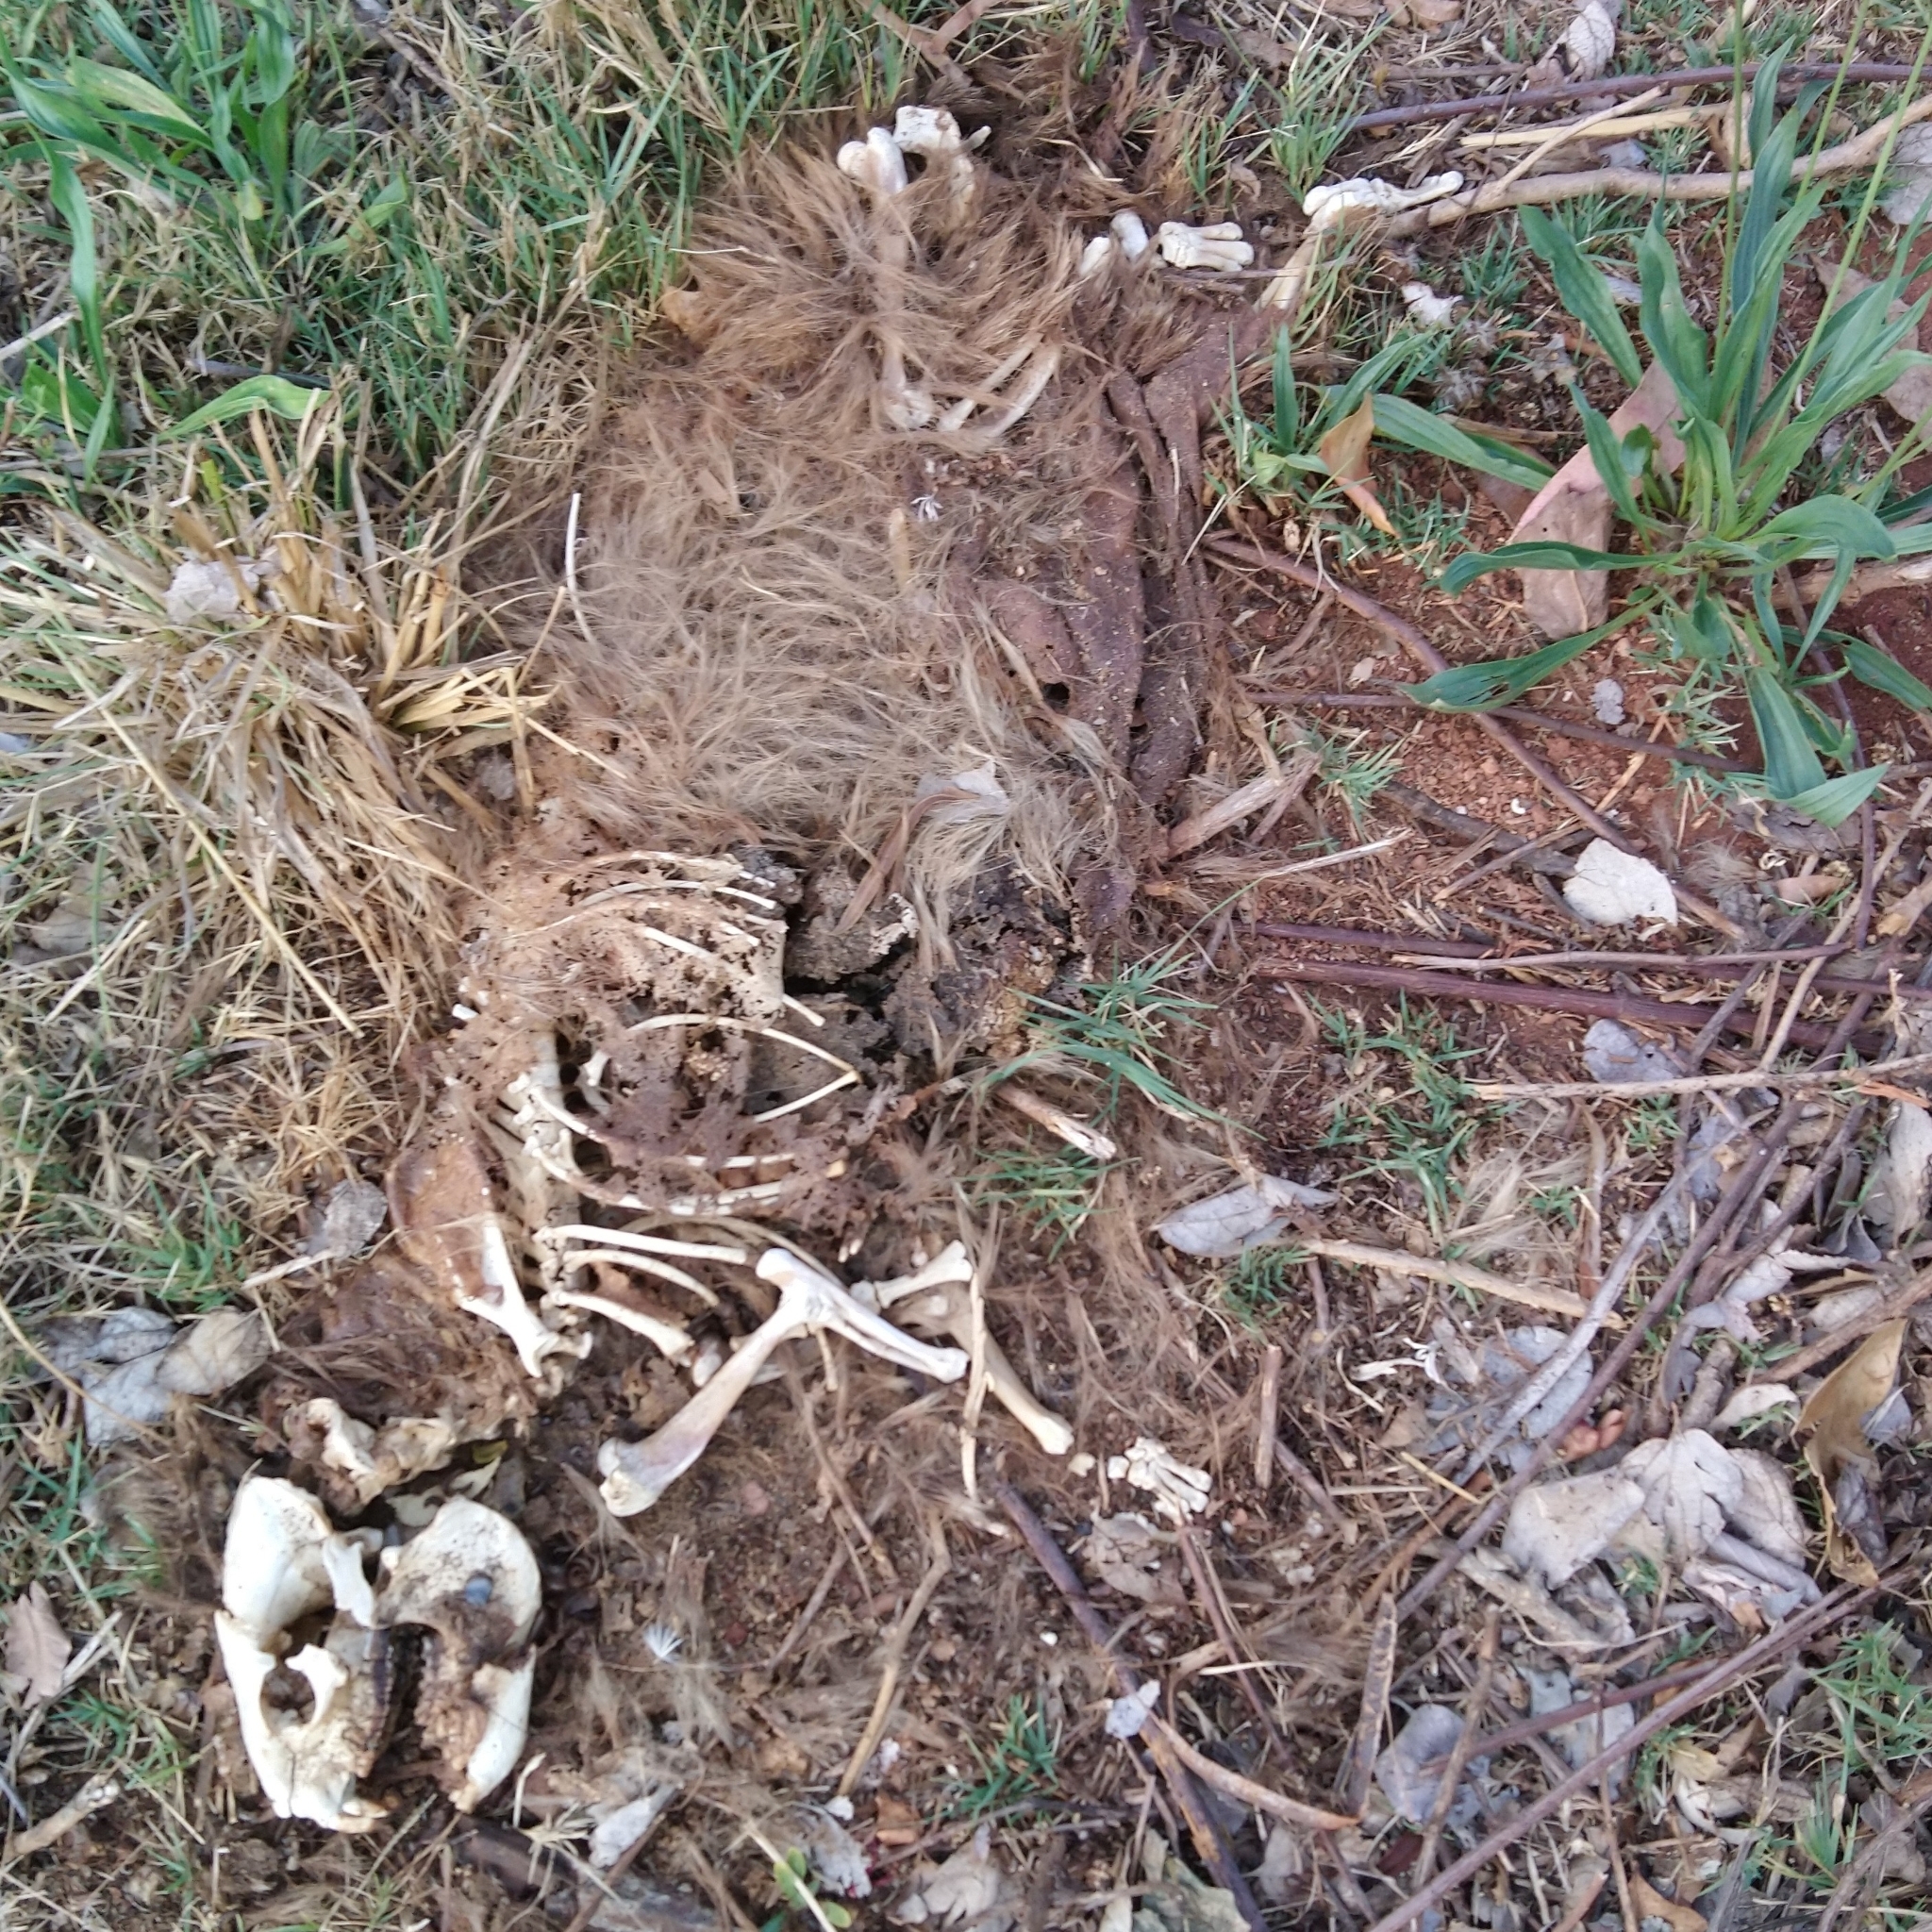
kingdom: Animalia
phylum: Chordata
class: Mammalia
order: Hyracoidea
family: Procaviidae
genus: Procavia
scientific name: Procavia capensis
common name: Rock hyrax
